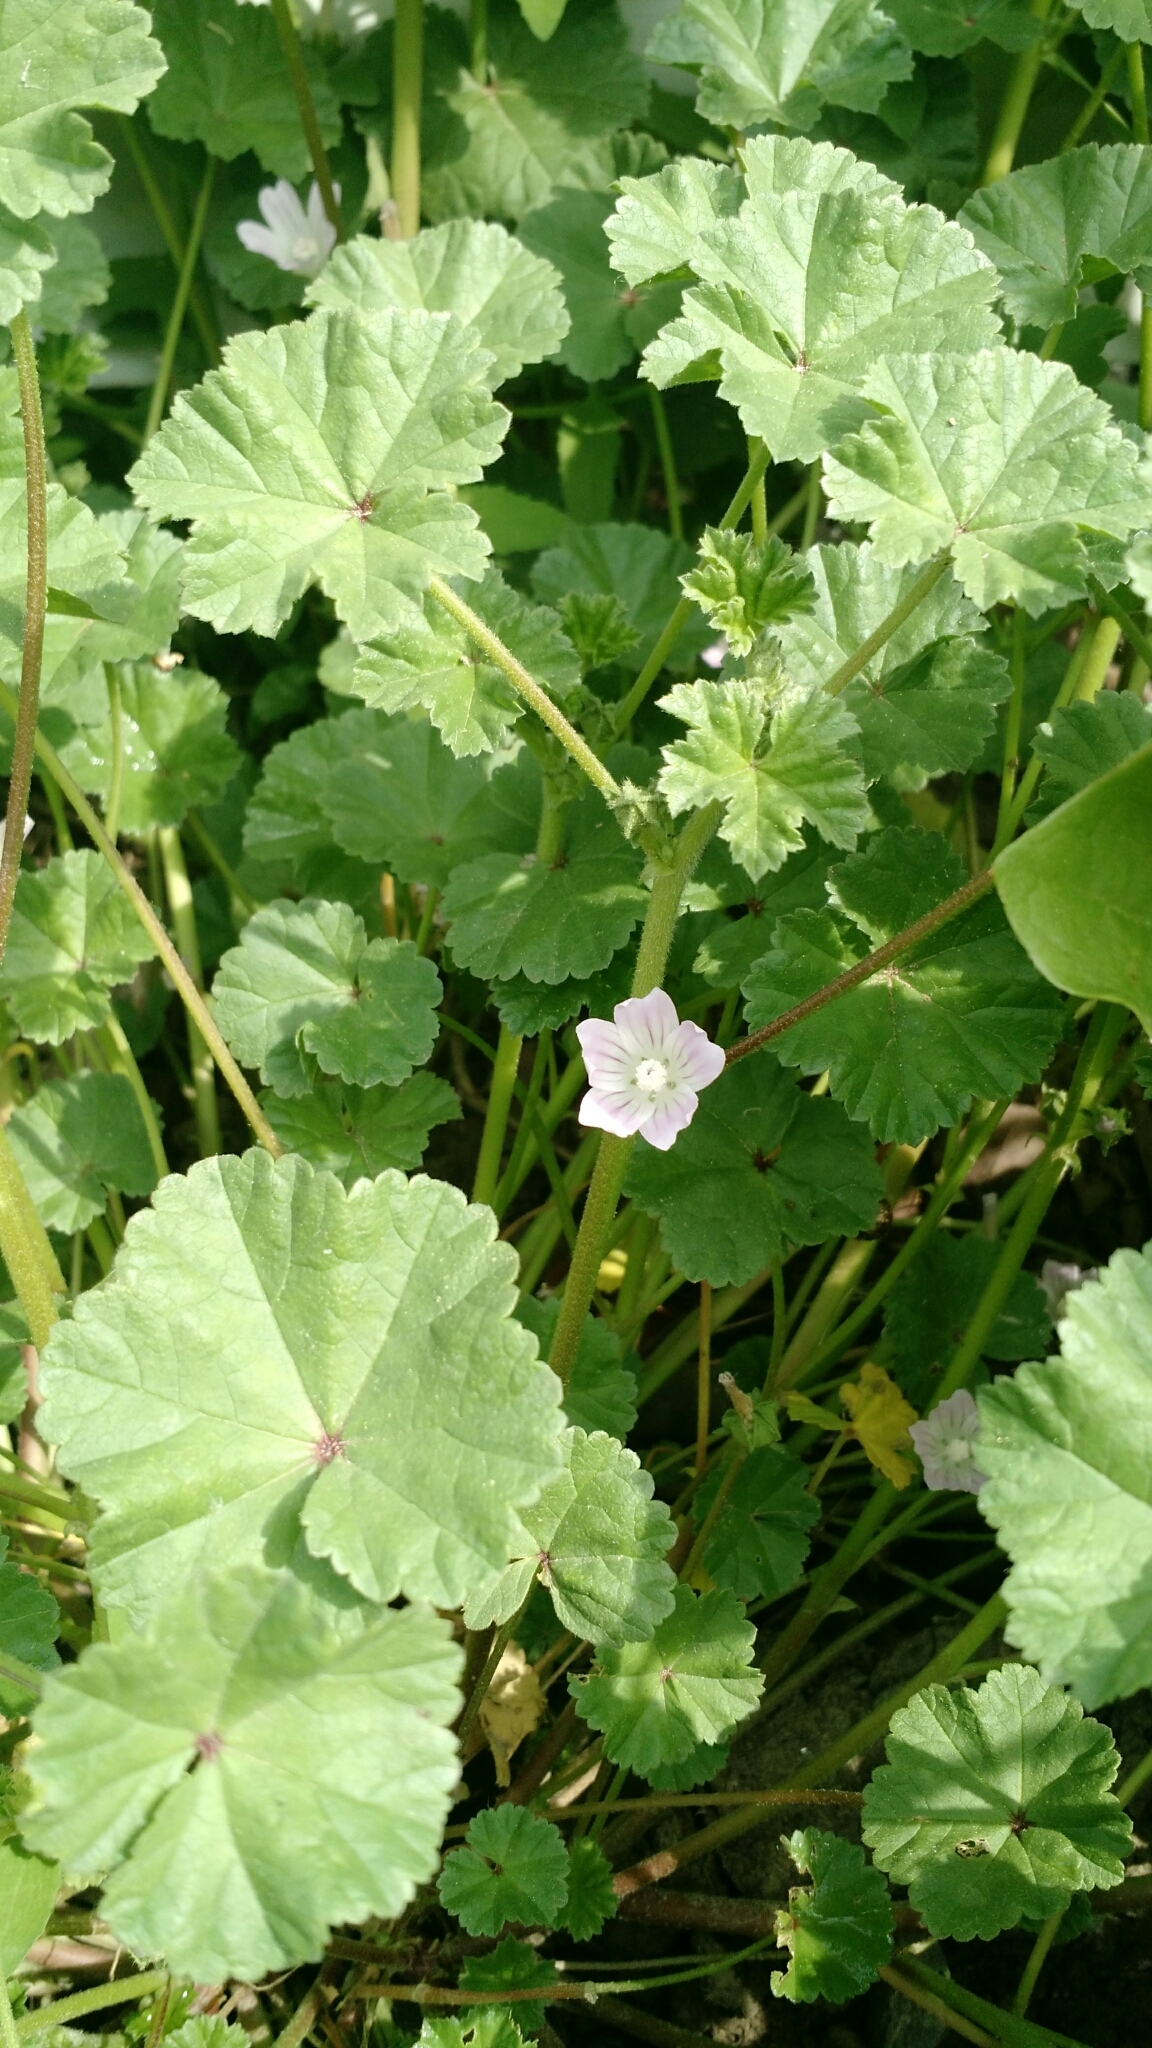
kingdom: Plantae
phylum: Tracheophyta
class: Magnoliopsida
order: Malvales
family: Malvaceae
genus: Malva
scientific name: Malva neglecta
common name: Common mallow
